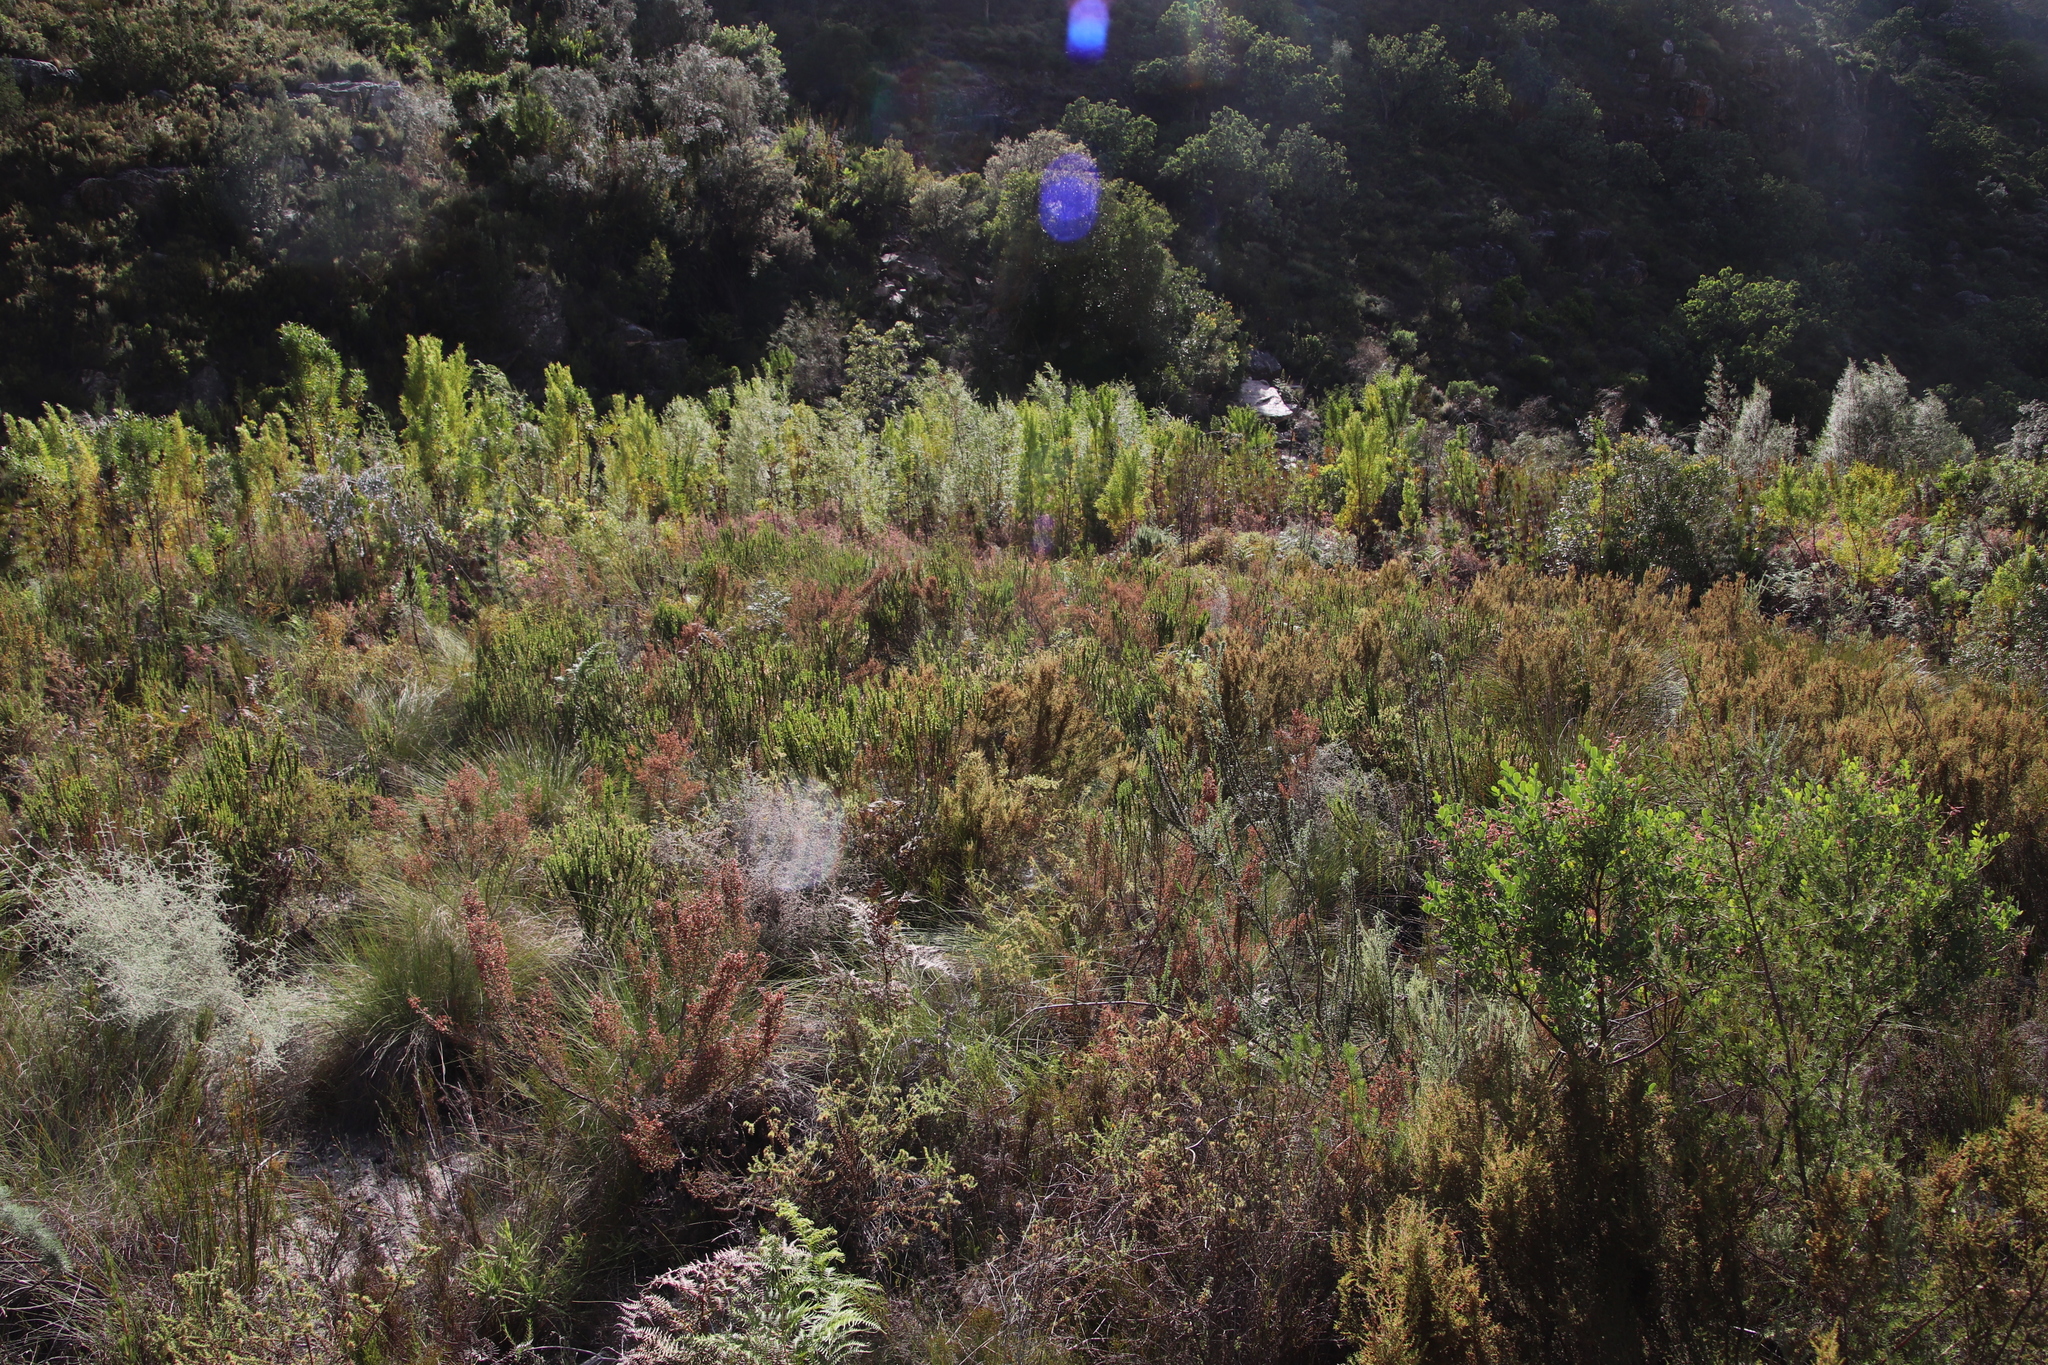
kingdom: Plantae
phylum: Tracheophyta
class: Magnoliopsida
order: Proteales
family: Proteaceae
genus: Leucadendron
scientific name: Leucadendron salicifolium
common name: Common stream conebush
